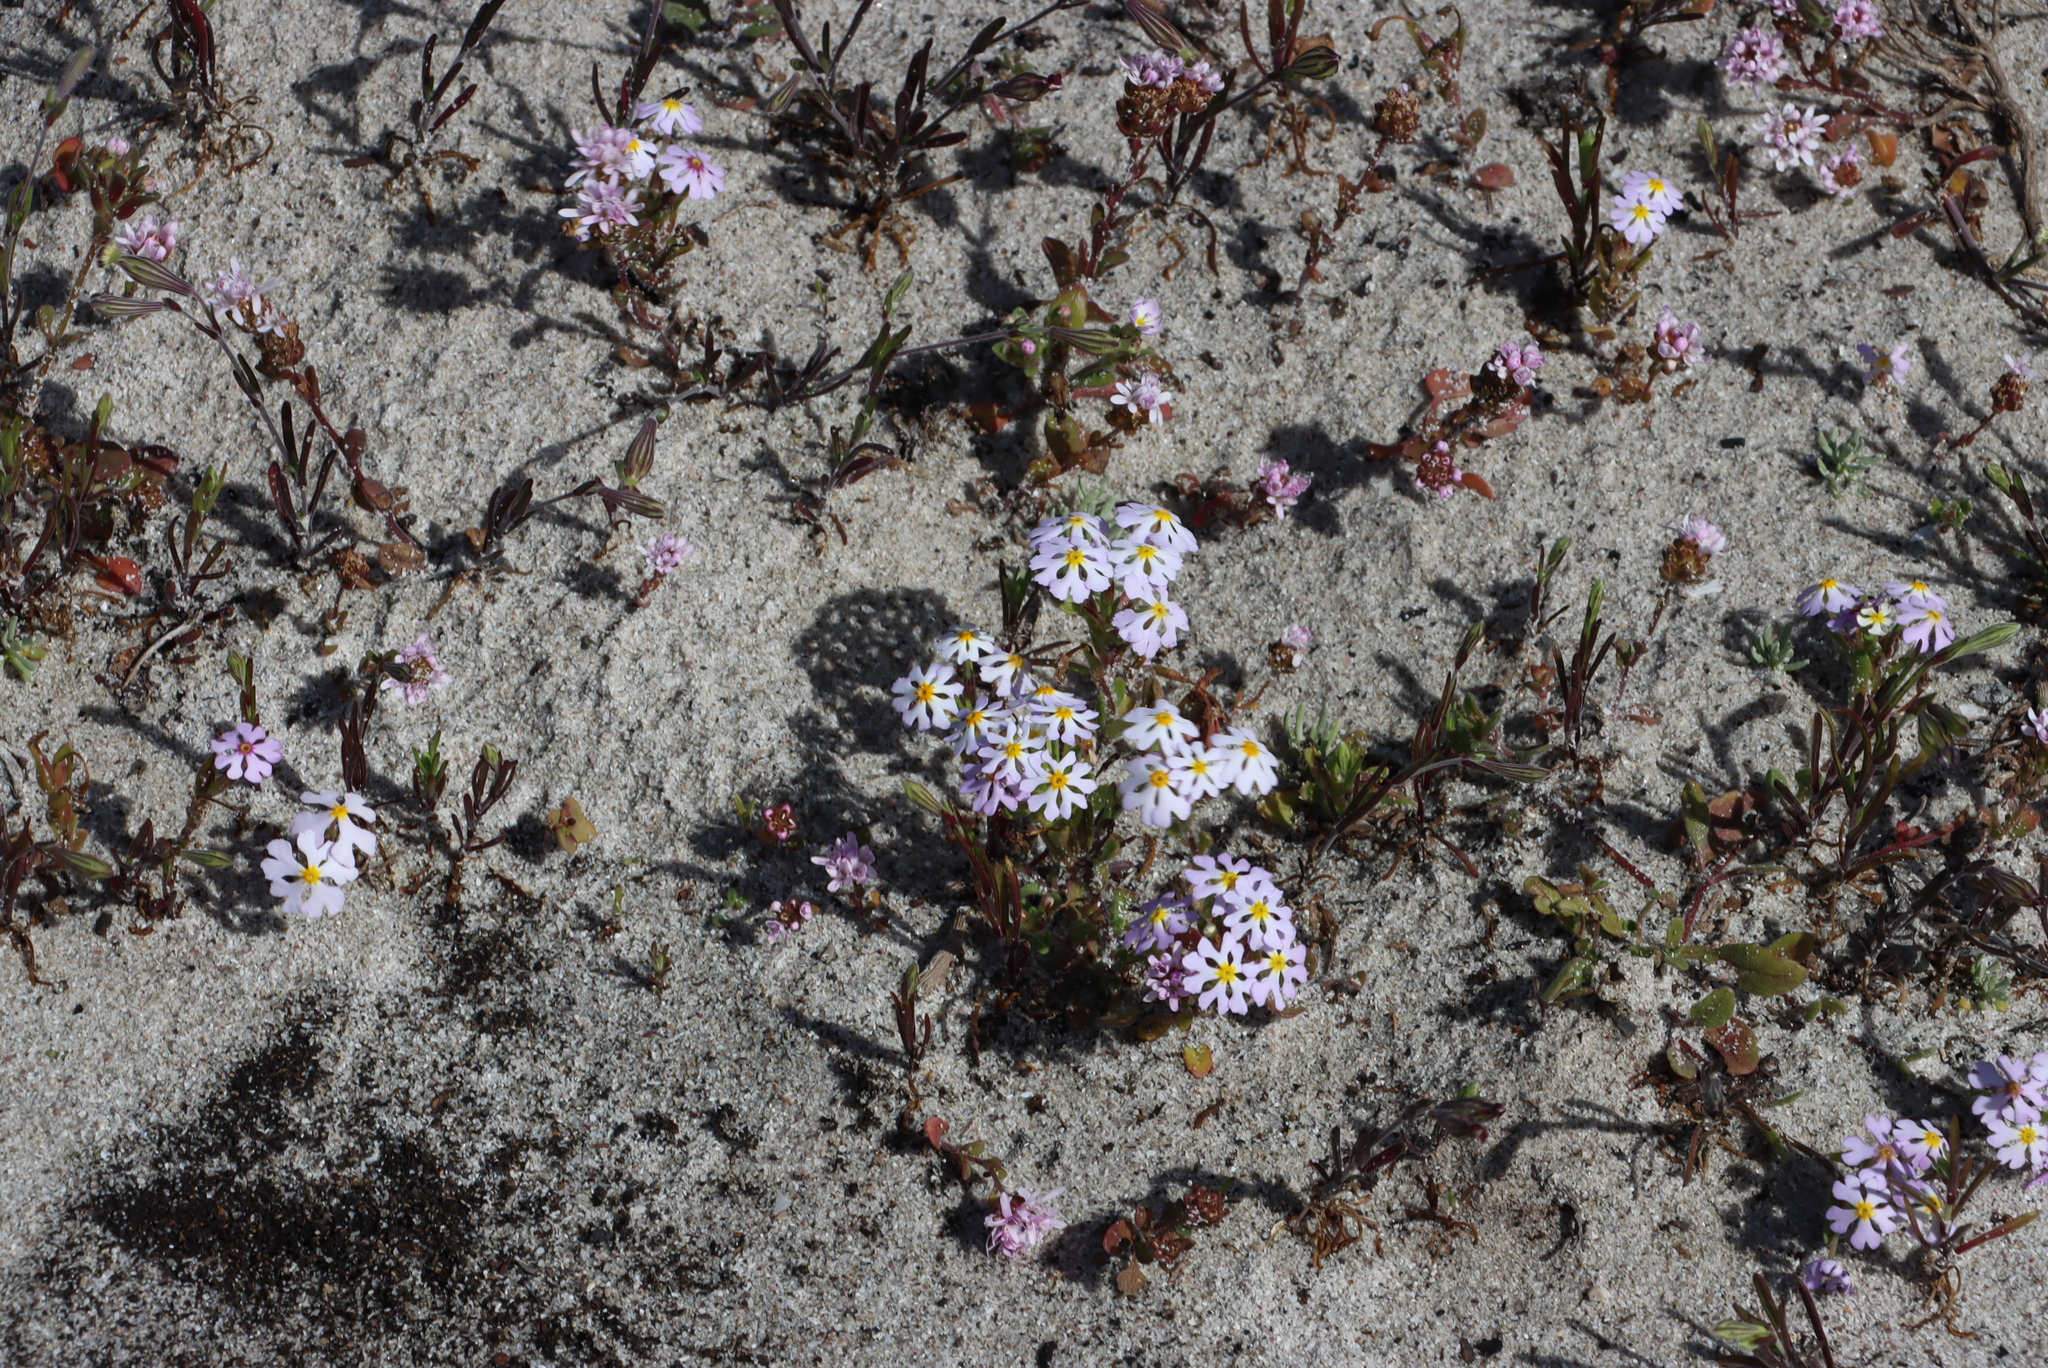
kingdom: Plantae
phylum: Tracheophyta
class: Magnoliopsida
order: Lamiales
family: Scrophulariaceae
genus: Zaluzianskya
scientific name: Zaluzianskya villosa
